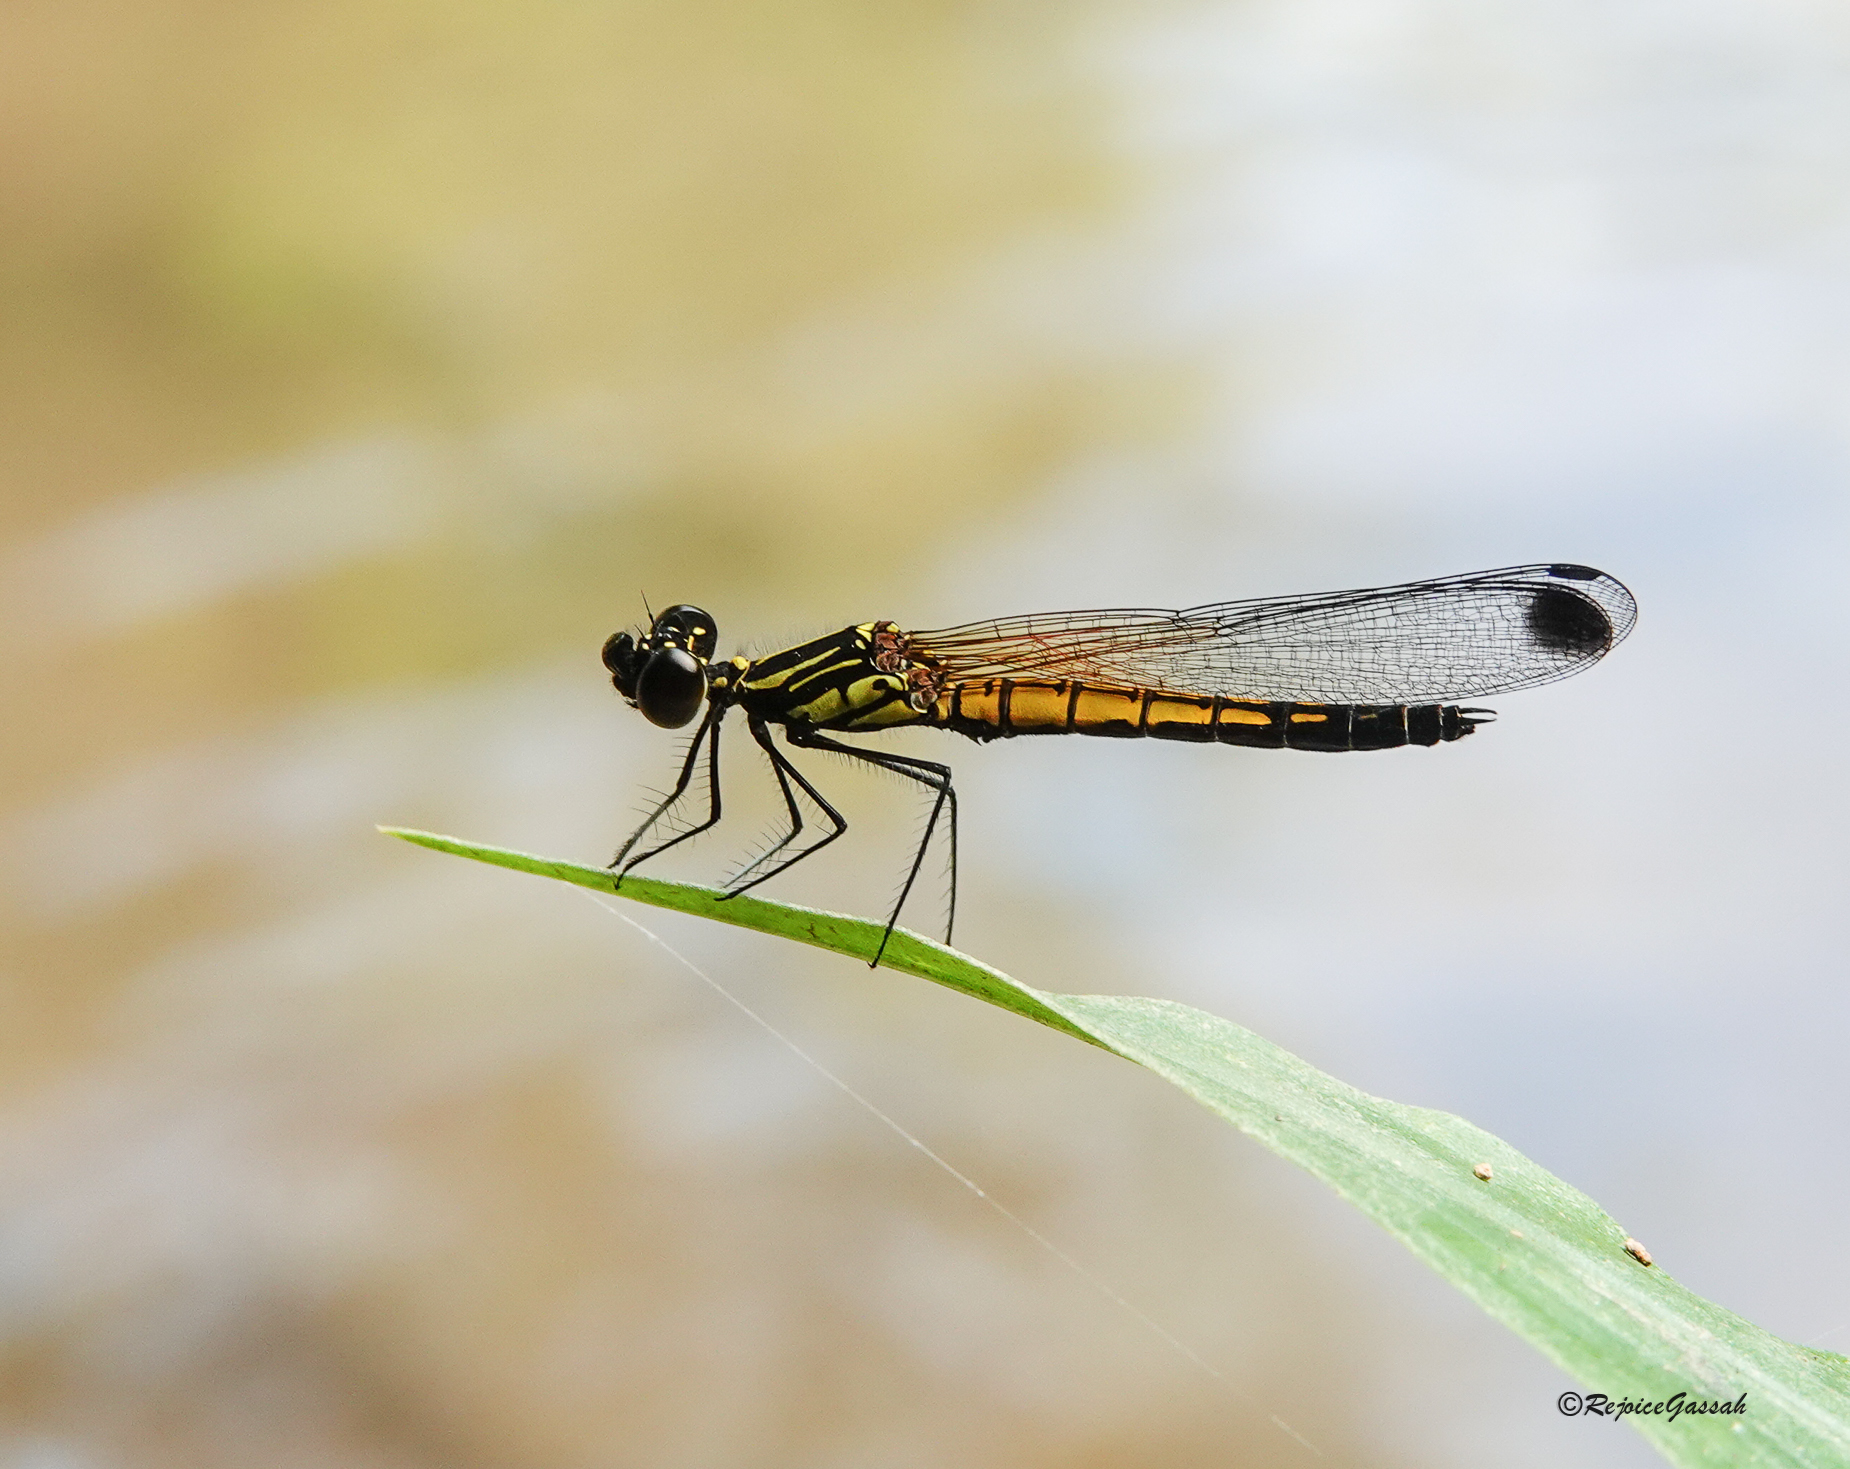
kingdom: Animalia
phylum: Arthropoda
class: Insecta
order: Odonata
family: Chlorocyphidae
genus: Libellago
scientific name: Libellago lineata
